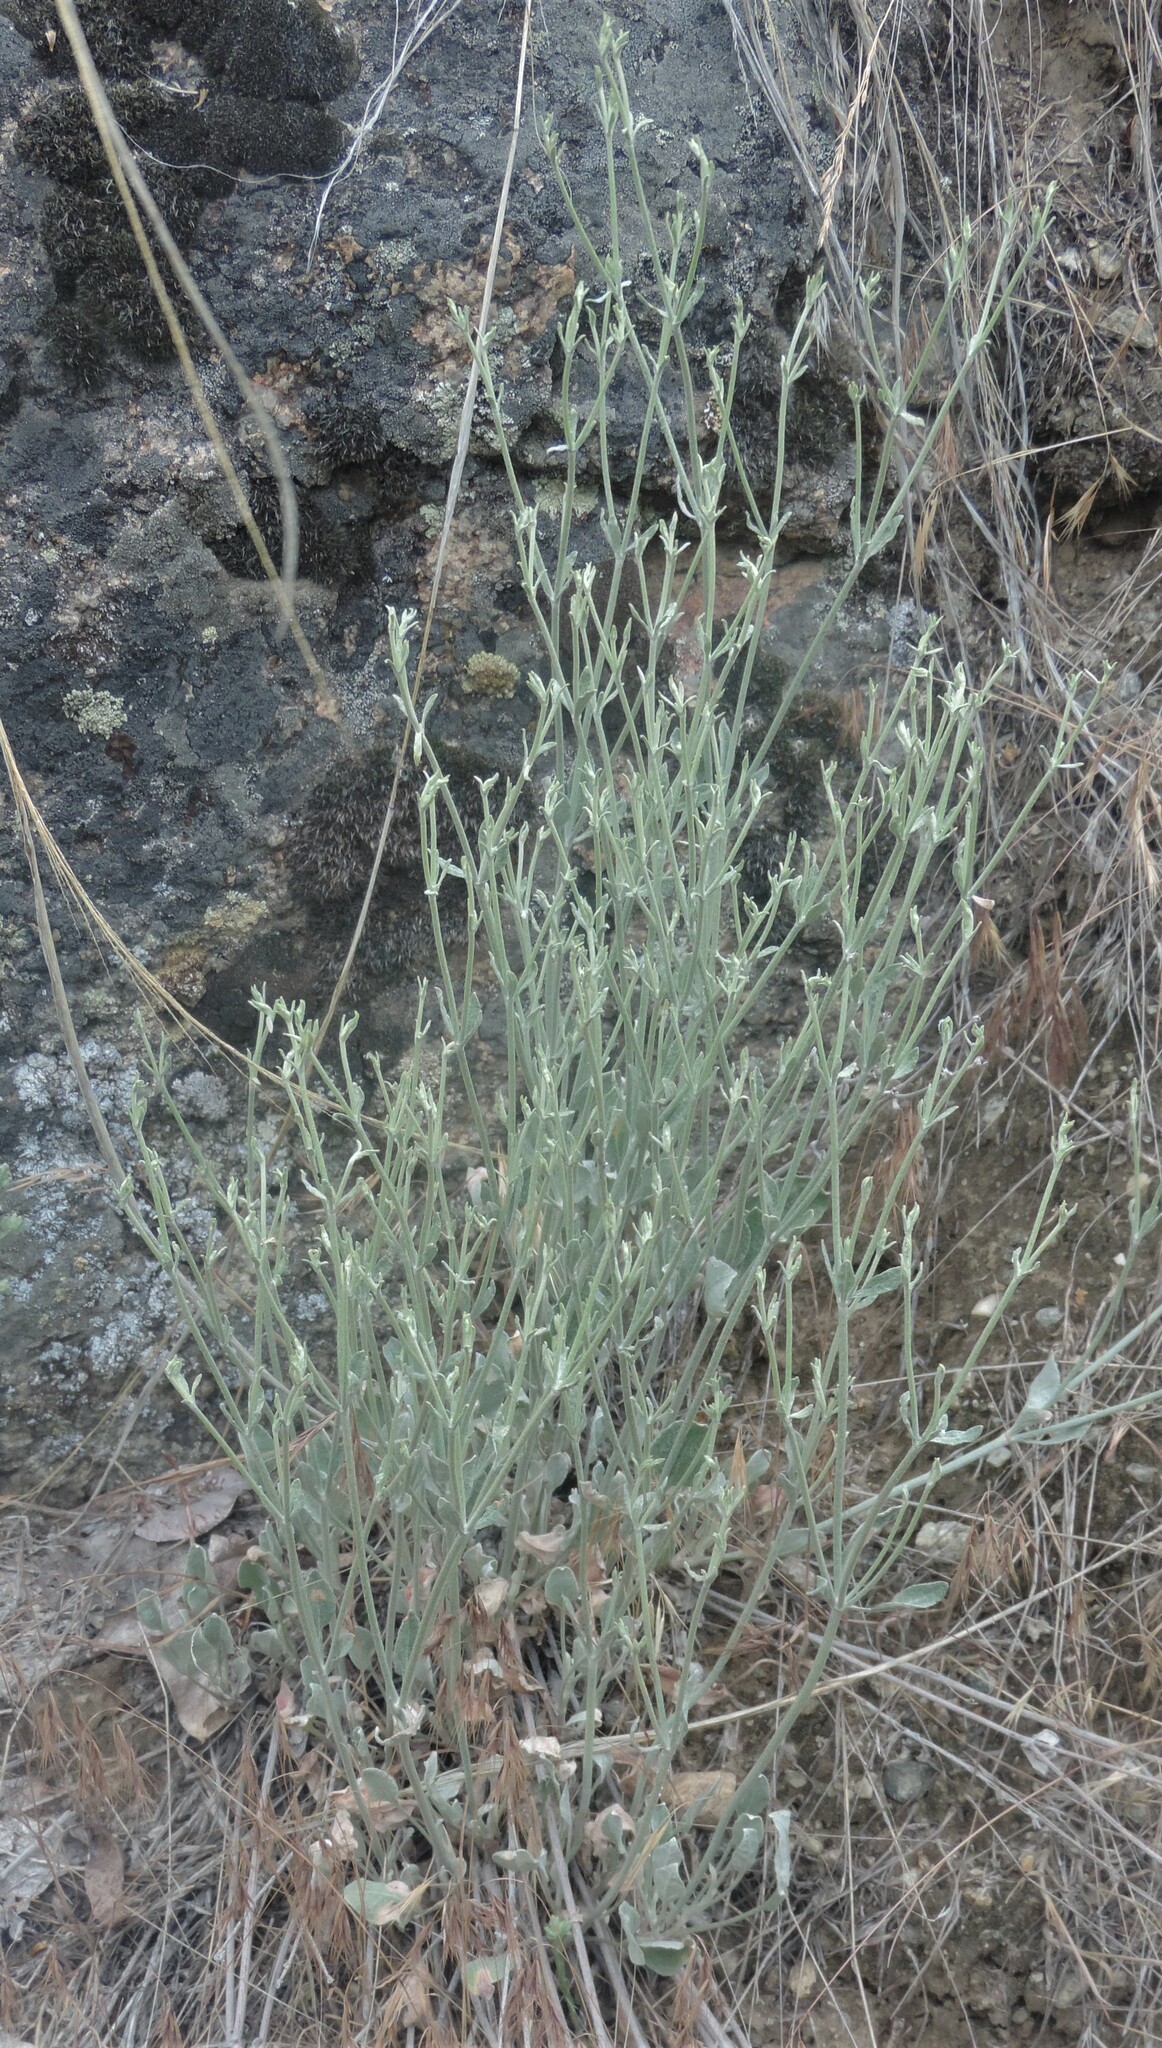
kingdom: Plantae
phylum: Tracheophyta
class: Magnoliopsida
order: Caryophyllales
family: Polygonaceae
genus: Eriogonum
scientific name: Eriogonum niveum
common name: Snow wild buckwheat
